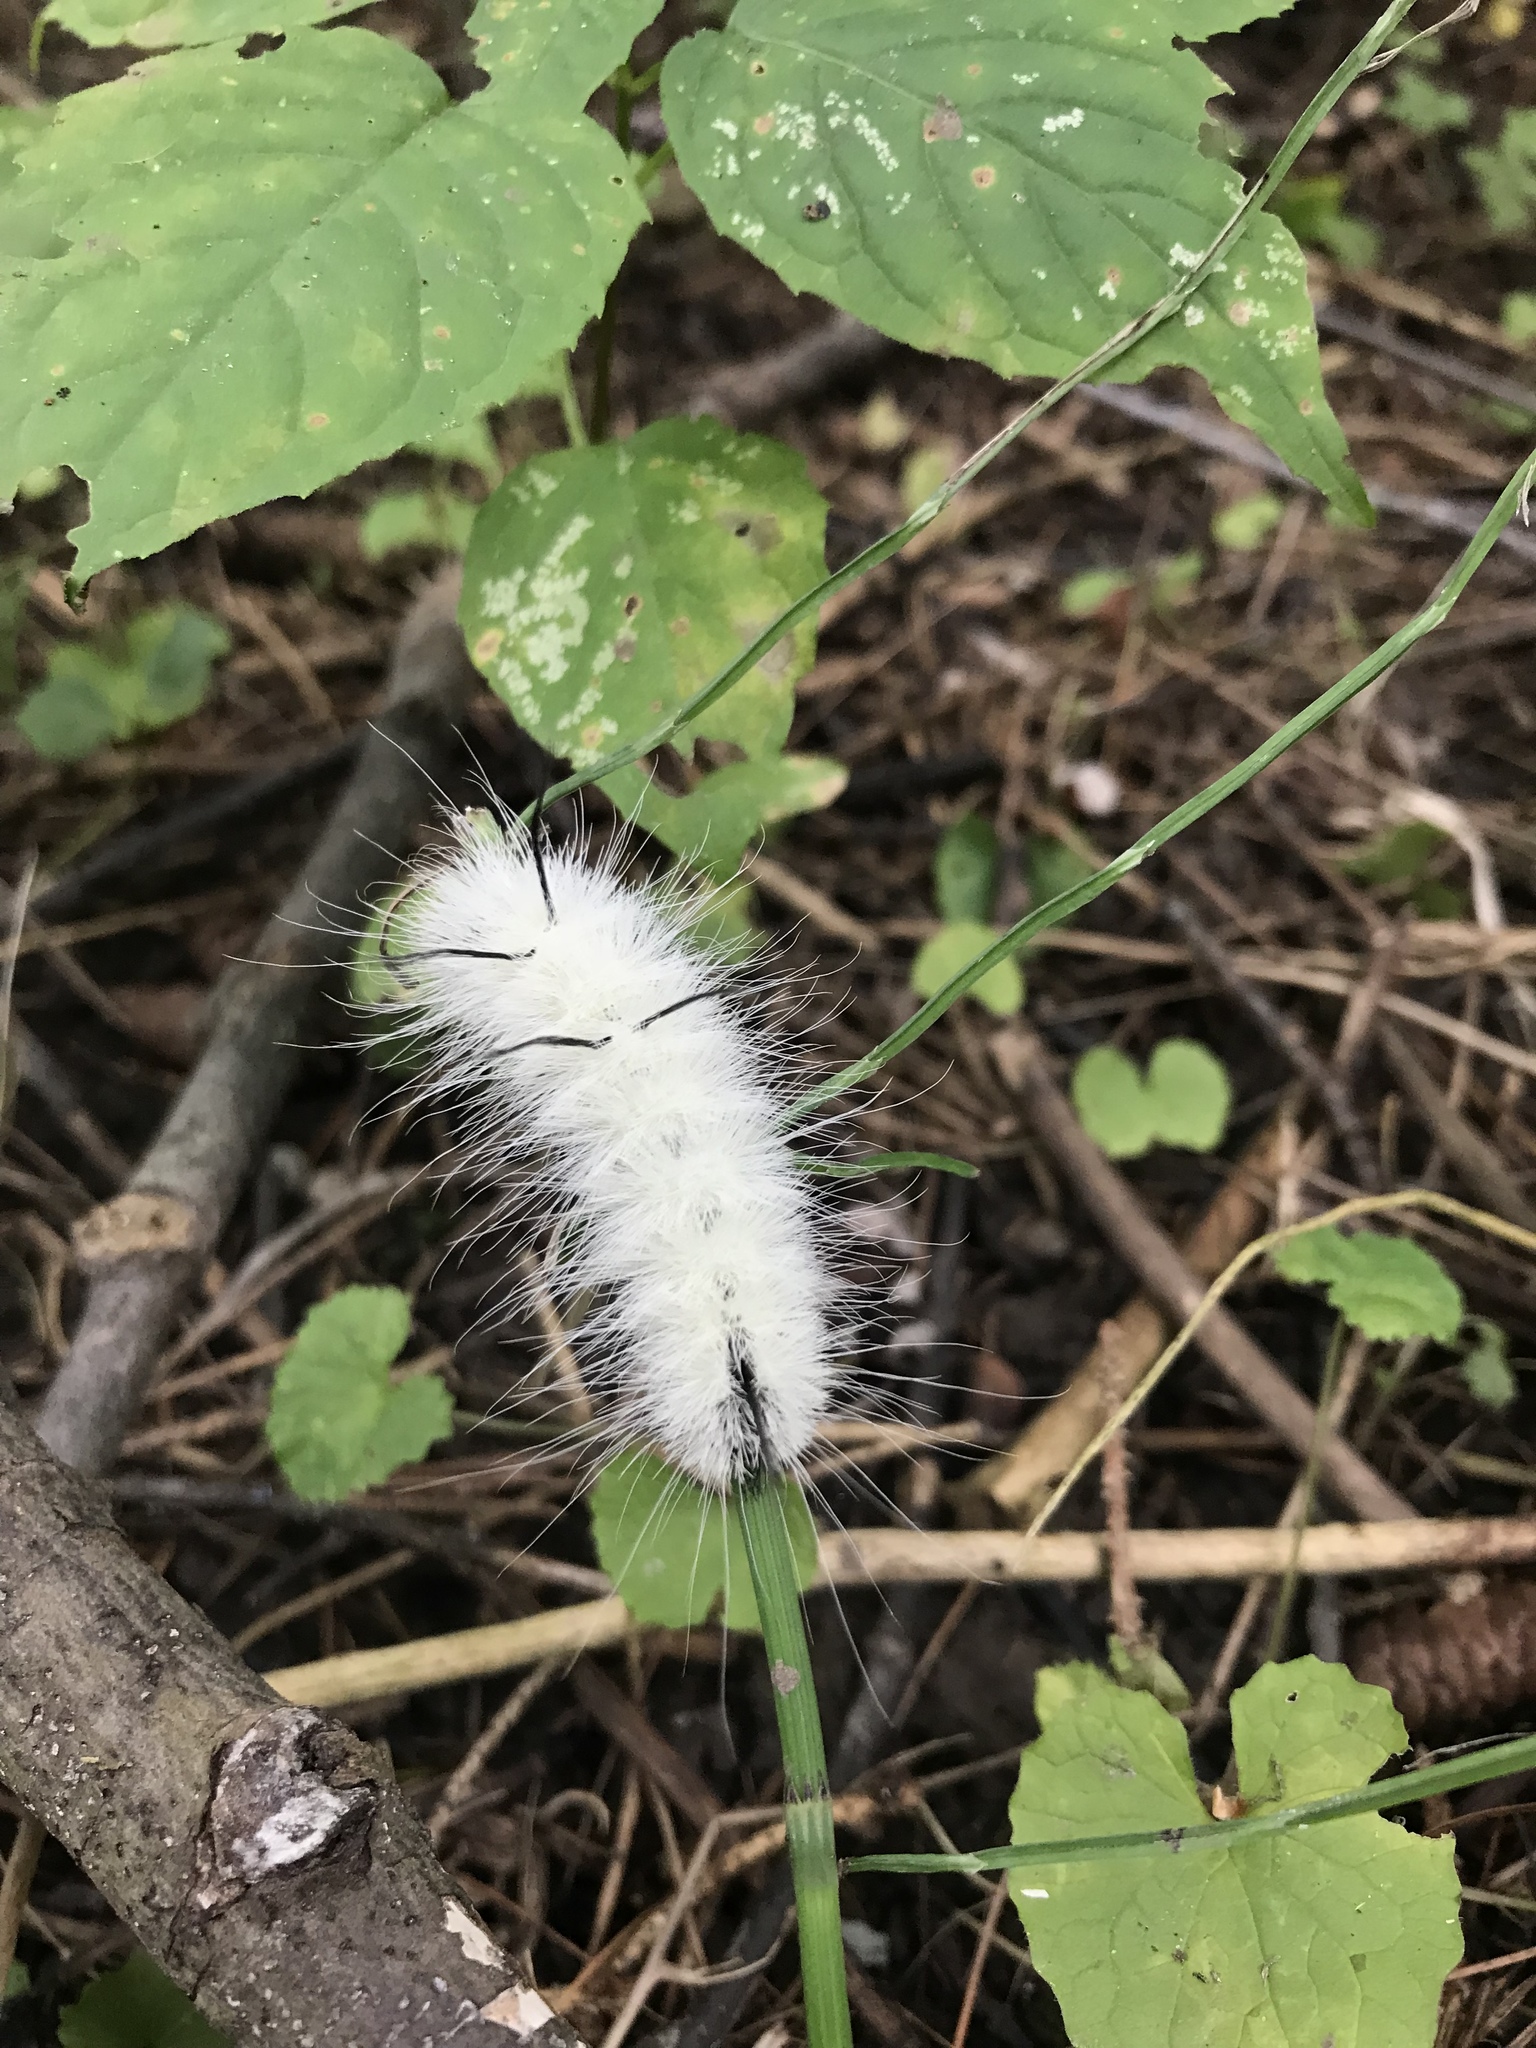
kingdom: Animalia
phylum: Arthropoda
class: Insecta
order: Lepidoptera
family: Noctuidae
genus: Acronicta
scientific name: Acronicta americana
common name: American dagger
